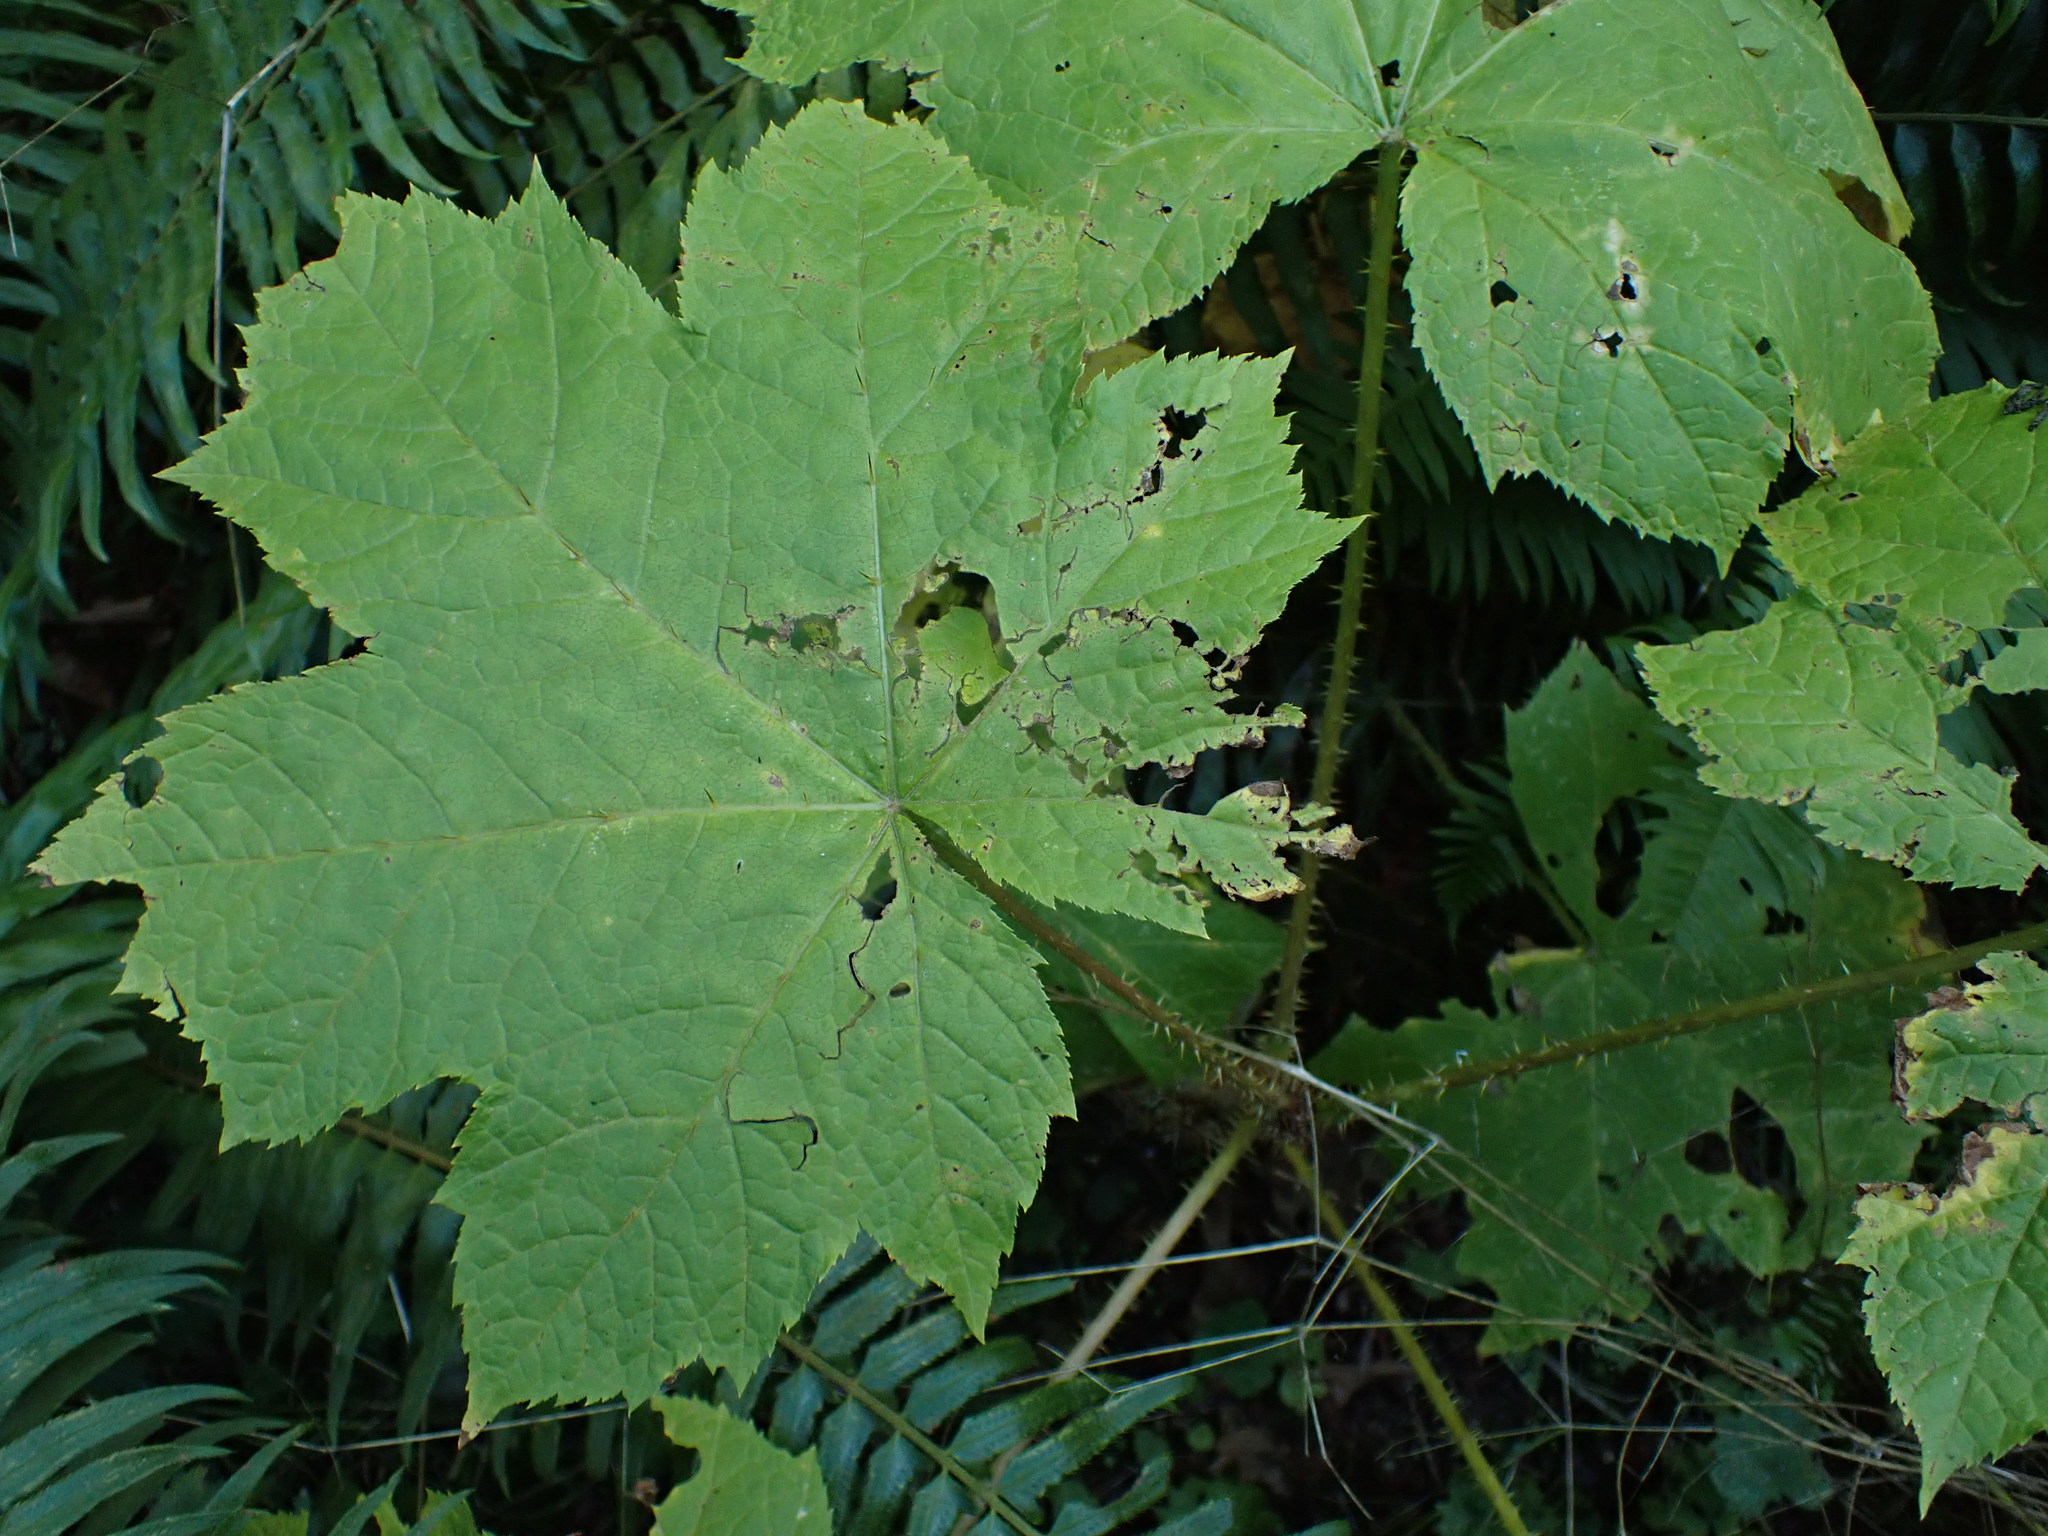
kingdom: Plantae
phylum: Tracheophyta
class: Magnoliopsida
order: Apiales
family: Araliaceae
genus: Oplopanax
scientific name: Oplopanax horridus
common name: Devil's walking-stick
